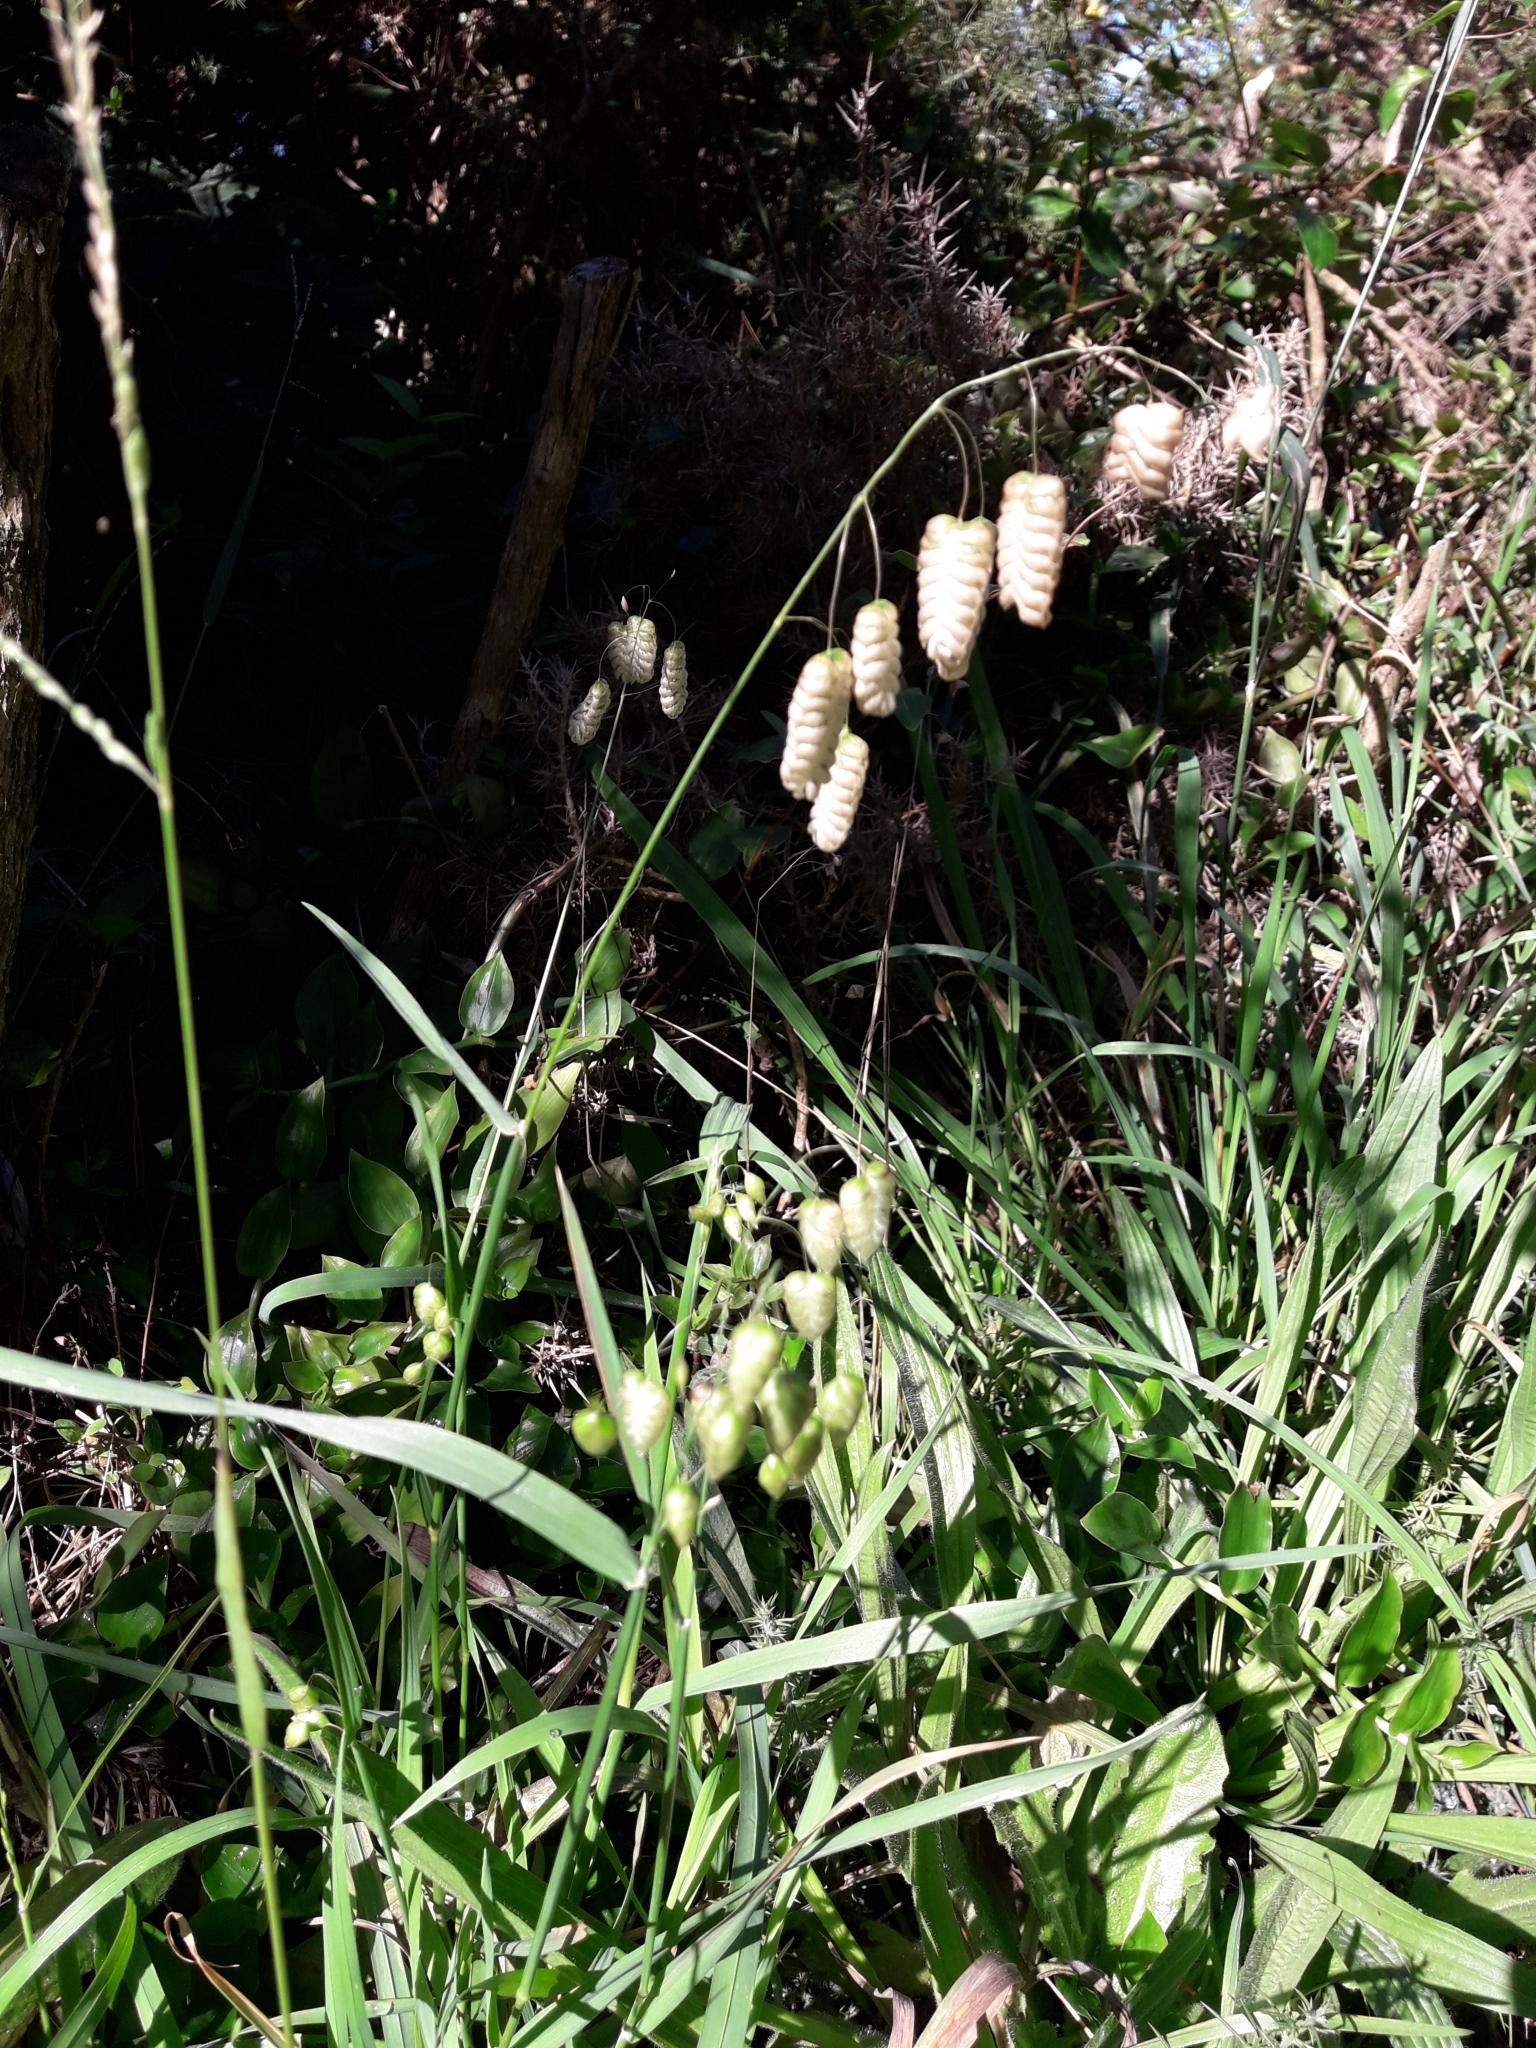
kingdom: Plantae
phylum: Tracheophyta
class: Liliopsida
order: Poales
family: Poaceae
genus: Briza
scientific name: Briza maxima
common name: Big quakinggrass
